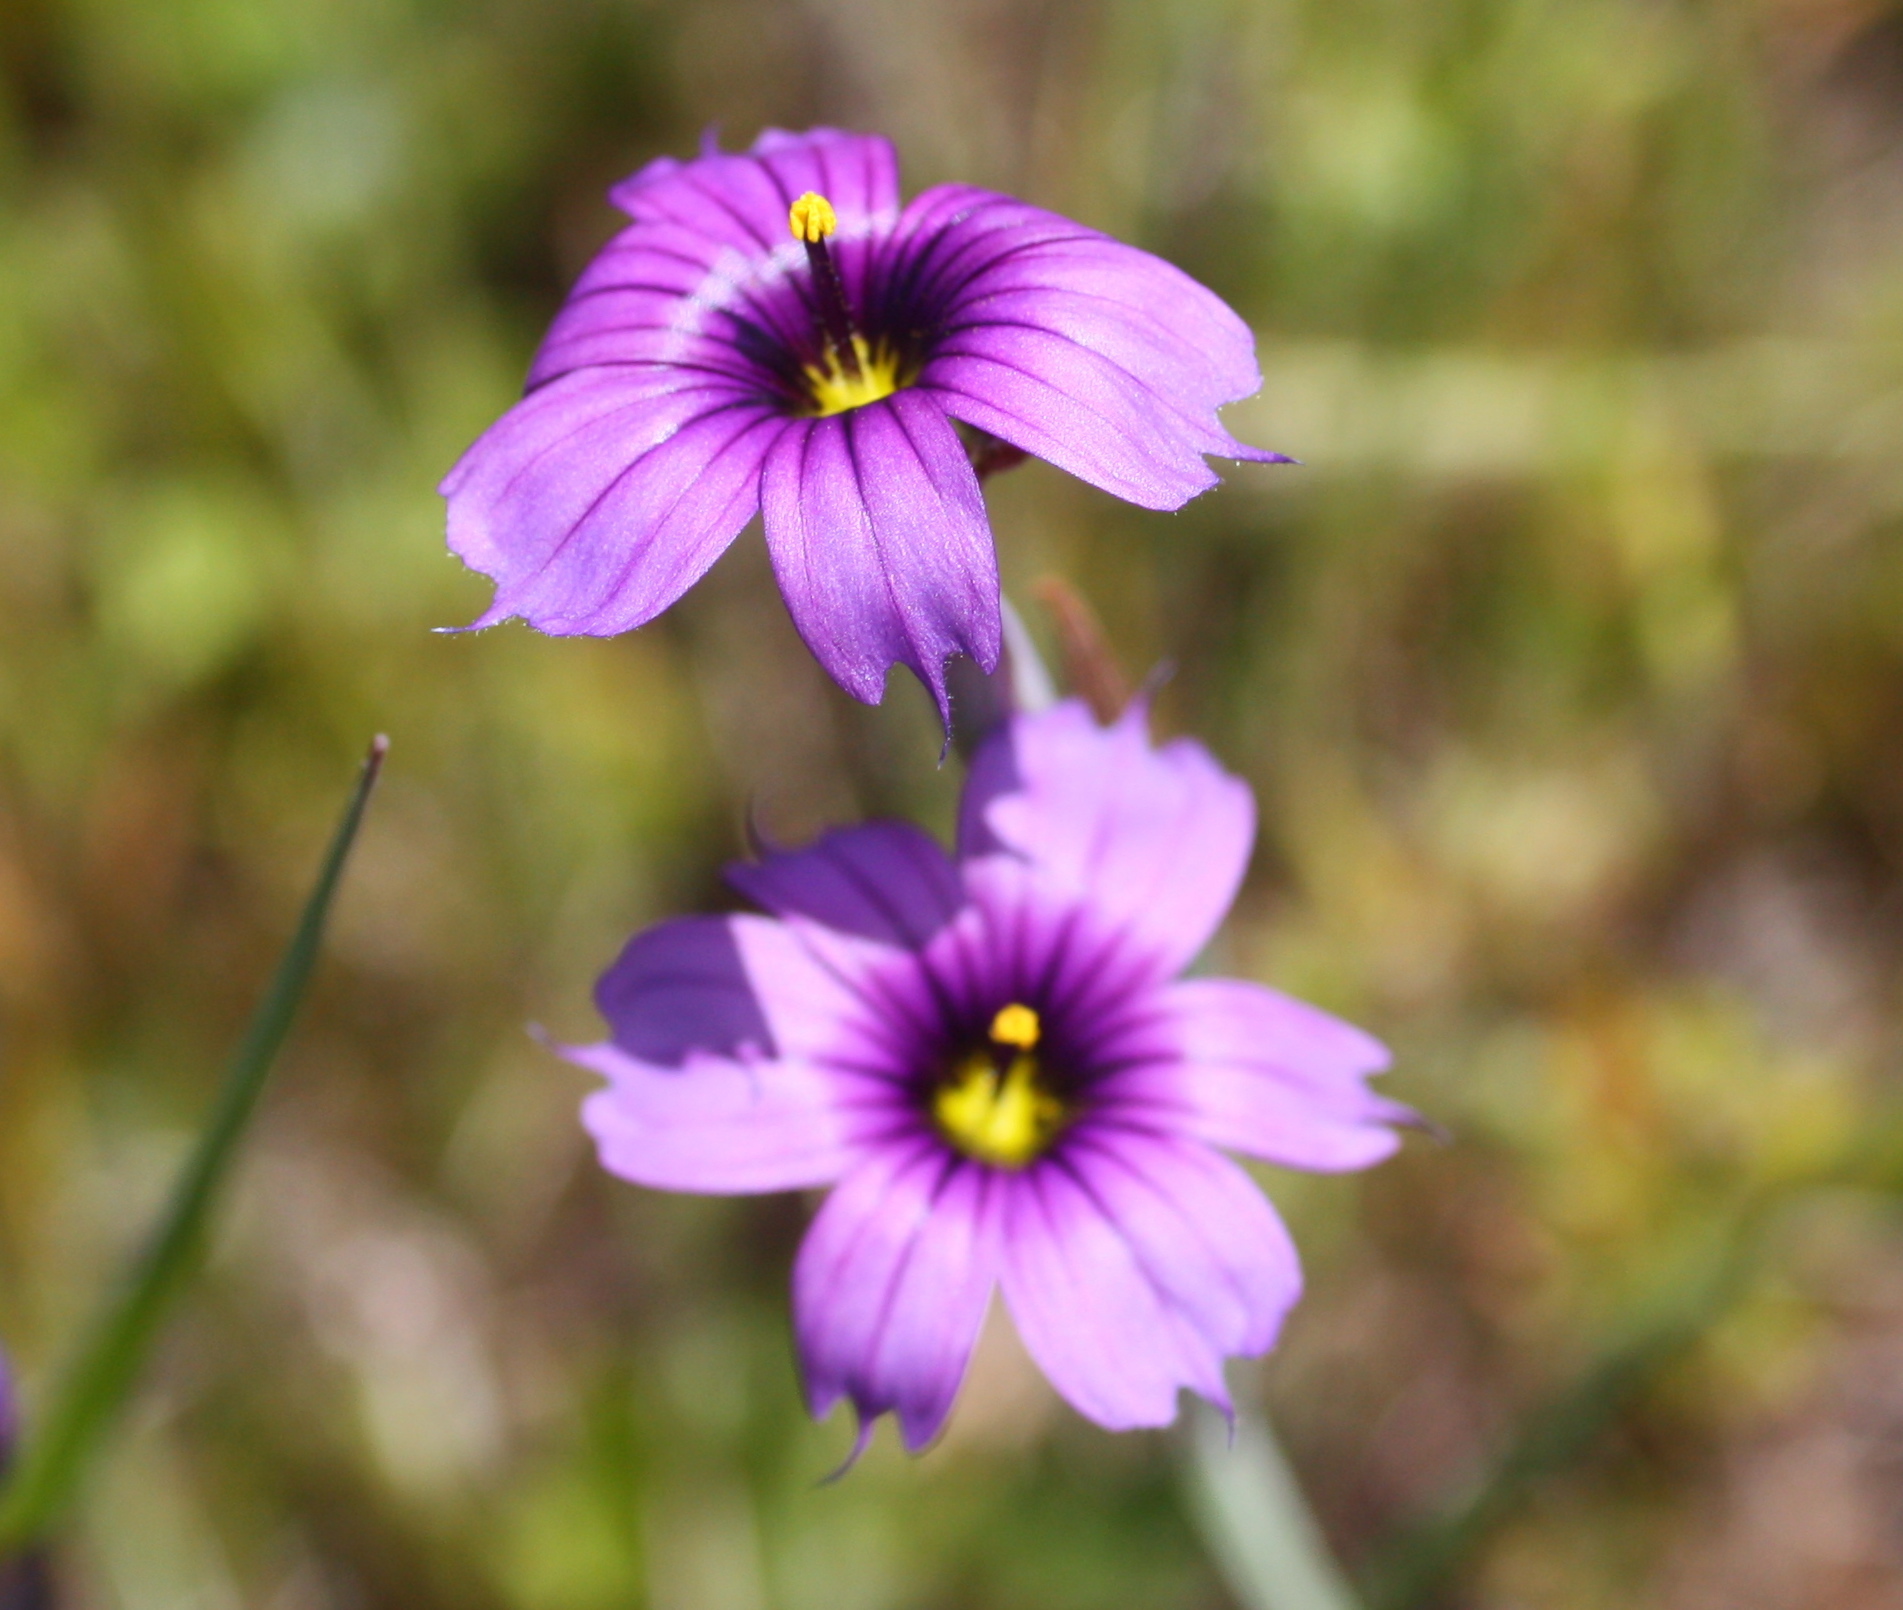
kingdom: Plantae
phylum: Tracheophyta
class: Liliopsida
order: Asparagales
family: Iridaceae
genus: Sisyrinchium
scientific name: Sisyrinchium bellum
